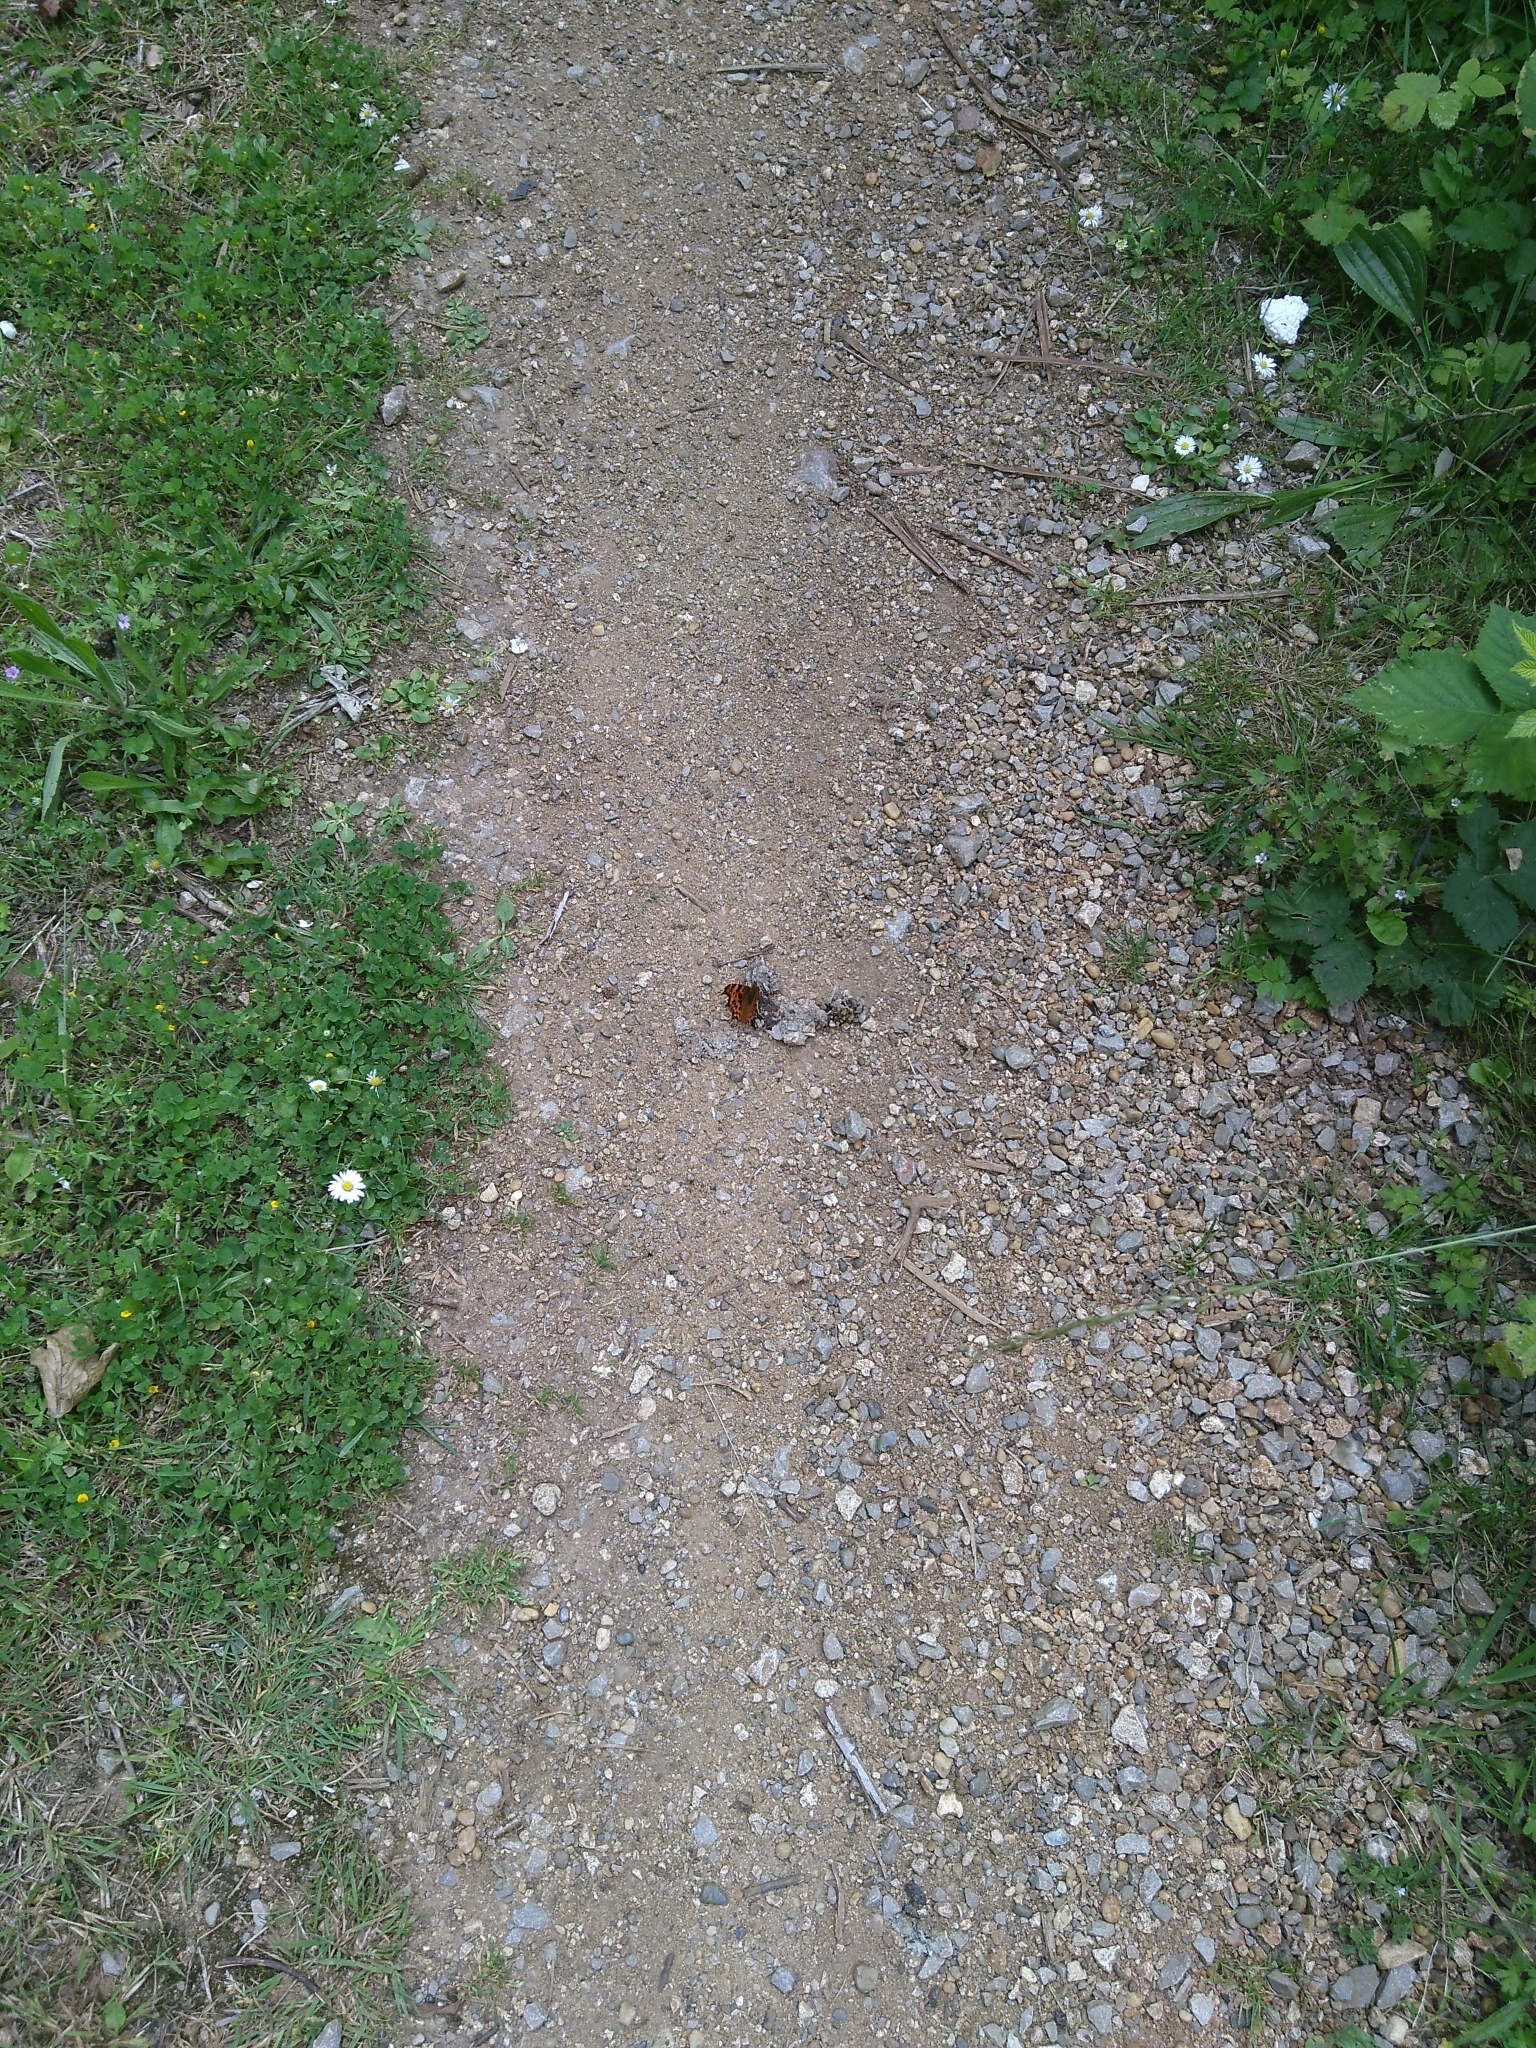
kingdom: Animalia
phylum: Arthropoda
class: Insecta
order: Lepidoptera
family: Nymphalidae
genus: Polygonia
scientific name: Polygonia c-album
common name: Comma
